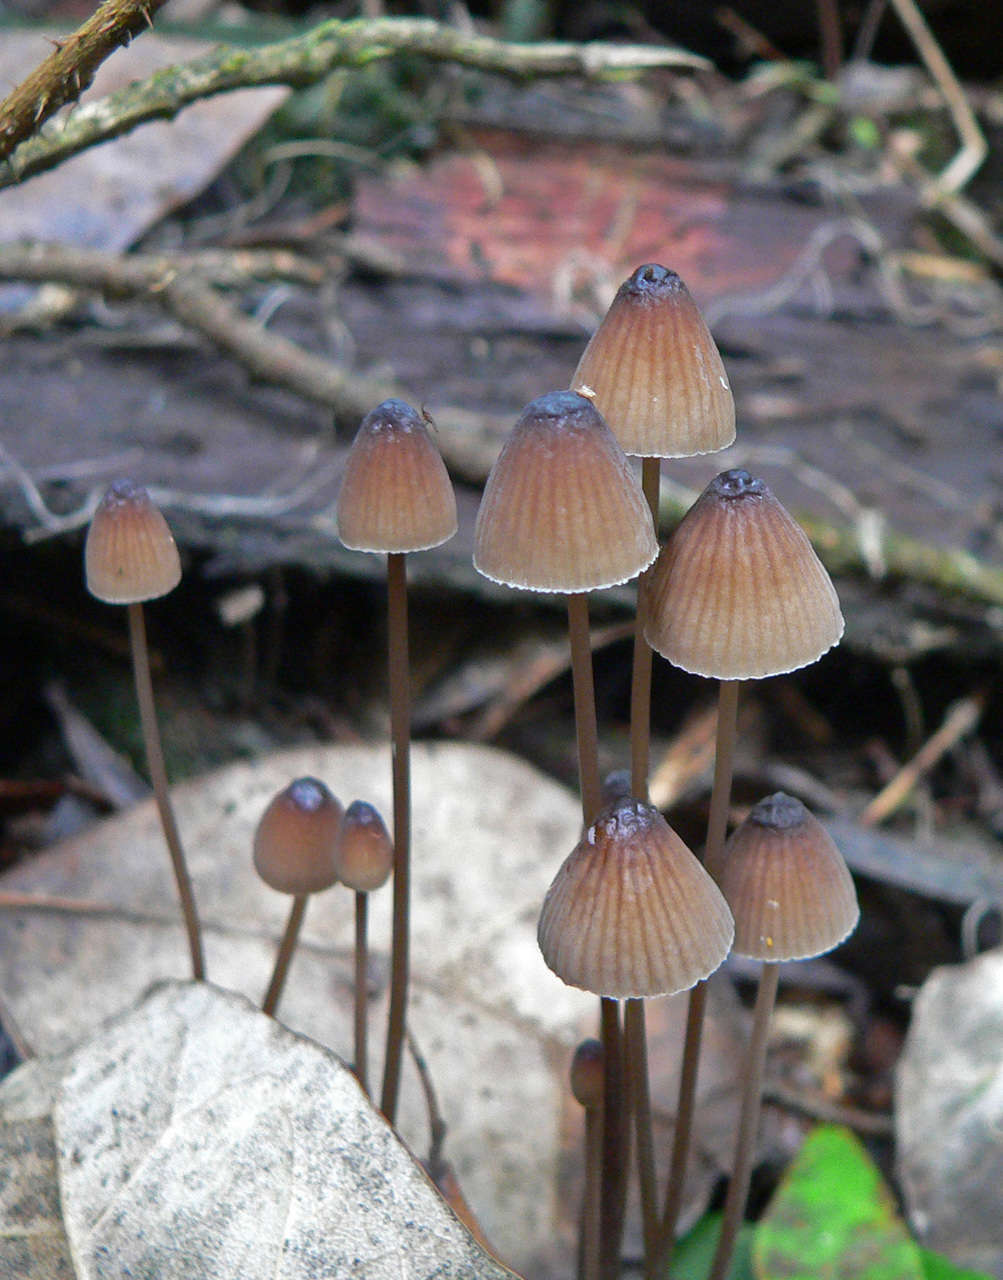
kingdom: Fungi
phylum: Basidiomycota
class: Agaricomycetes
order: Agaricales
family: Mycenaceae
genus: Mycena
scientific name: Mycena cystidiosa
